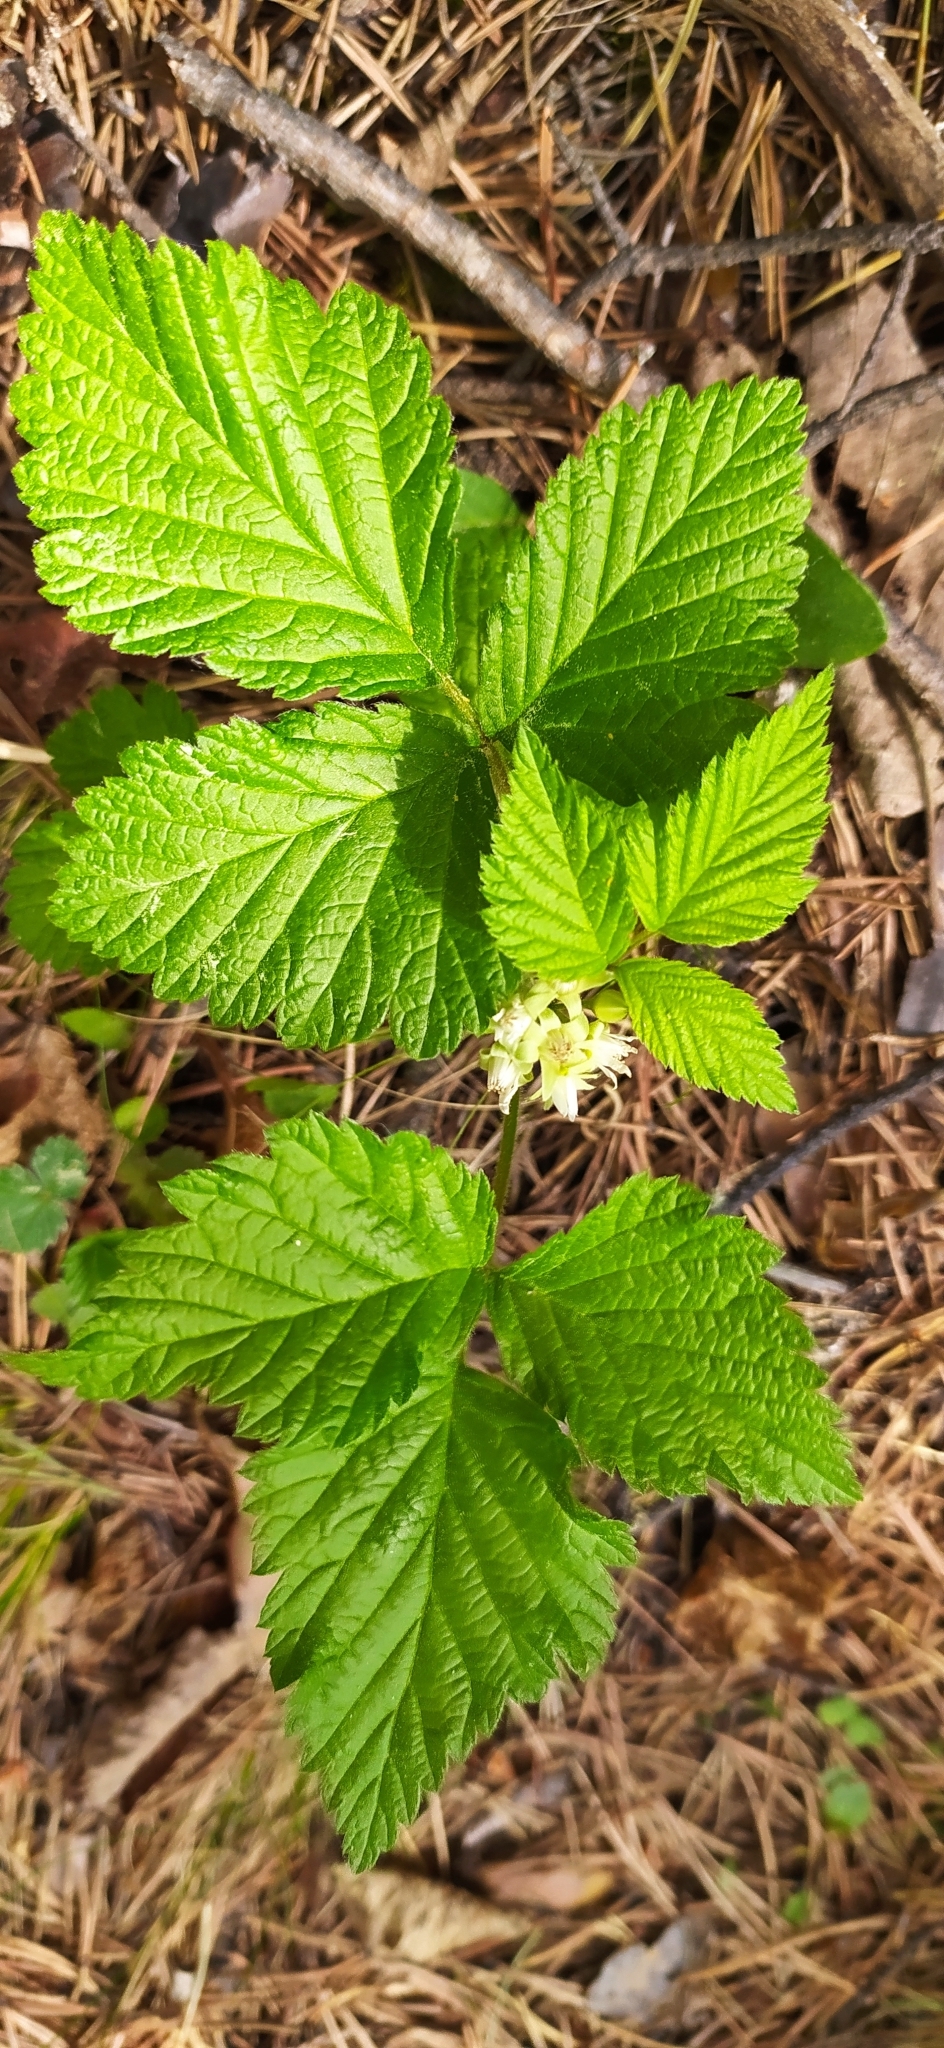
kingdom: Plantae
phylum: Tracheophyta
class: Magnoliopsida
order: Rosales
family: Rosaceae
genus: Rubus
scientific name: Rubus saxatilis
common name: Stone bramble
